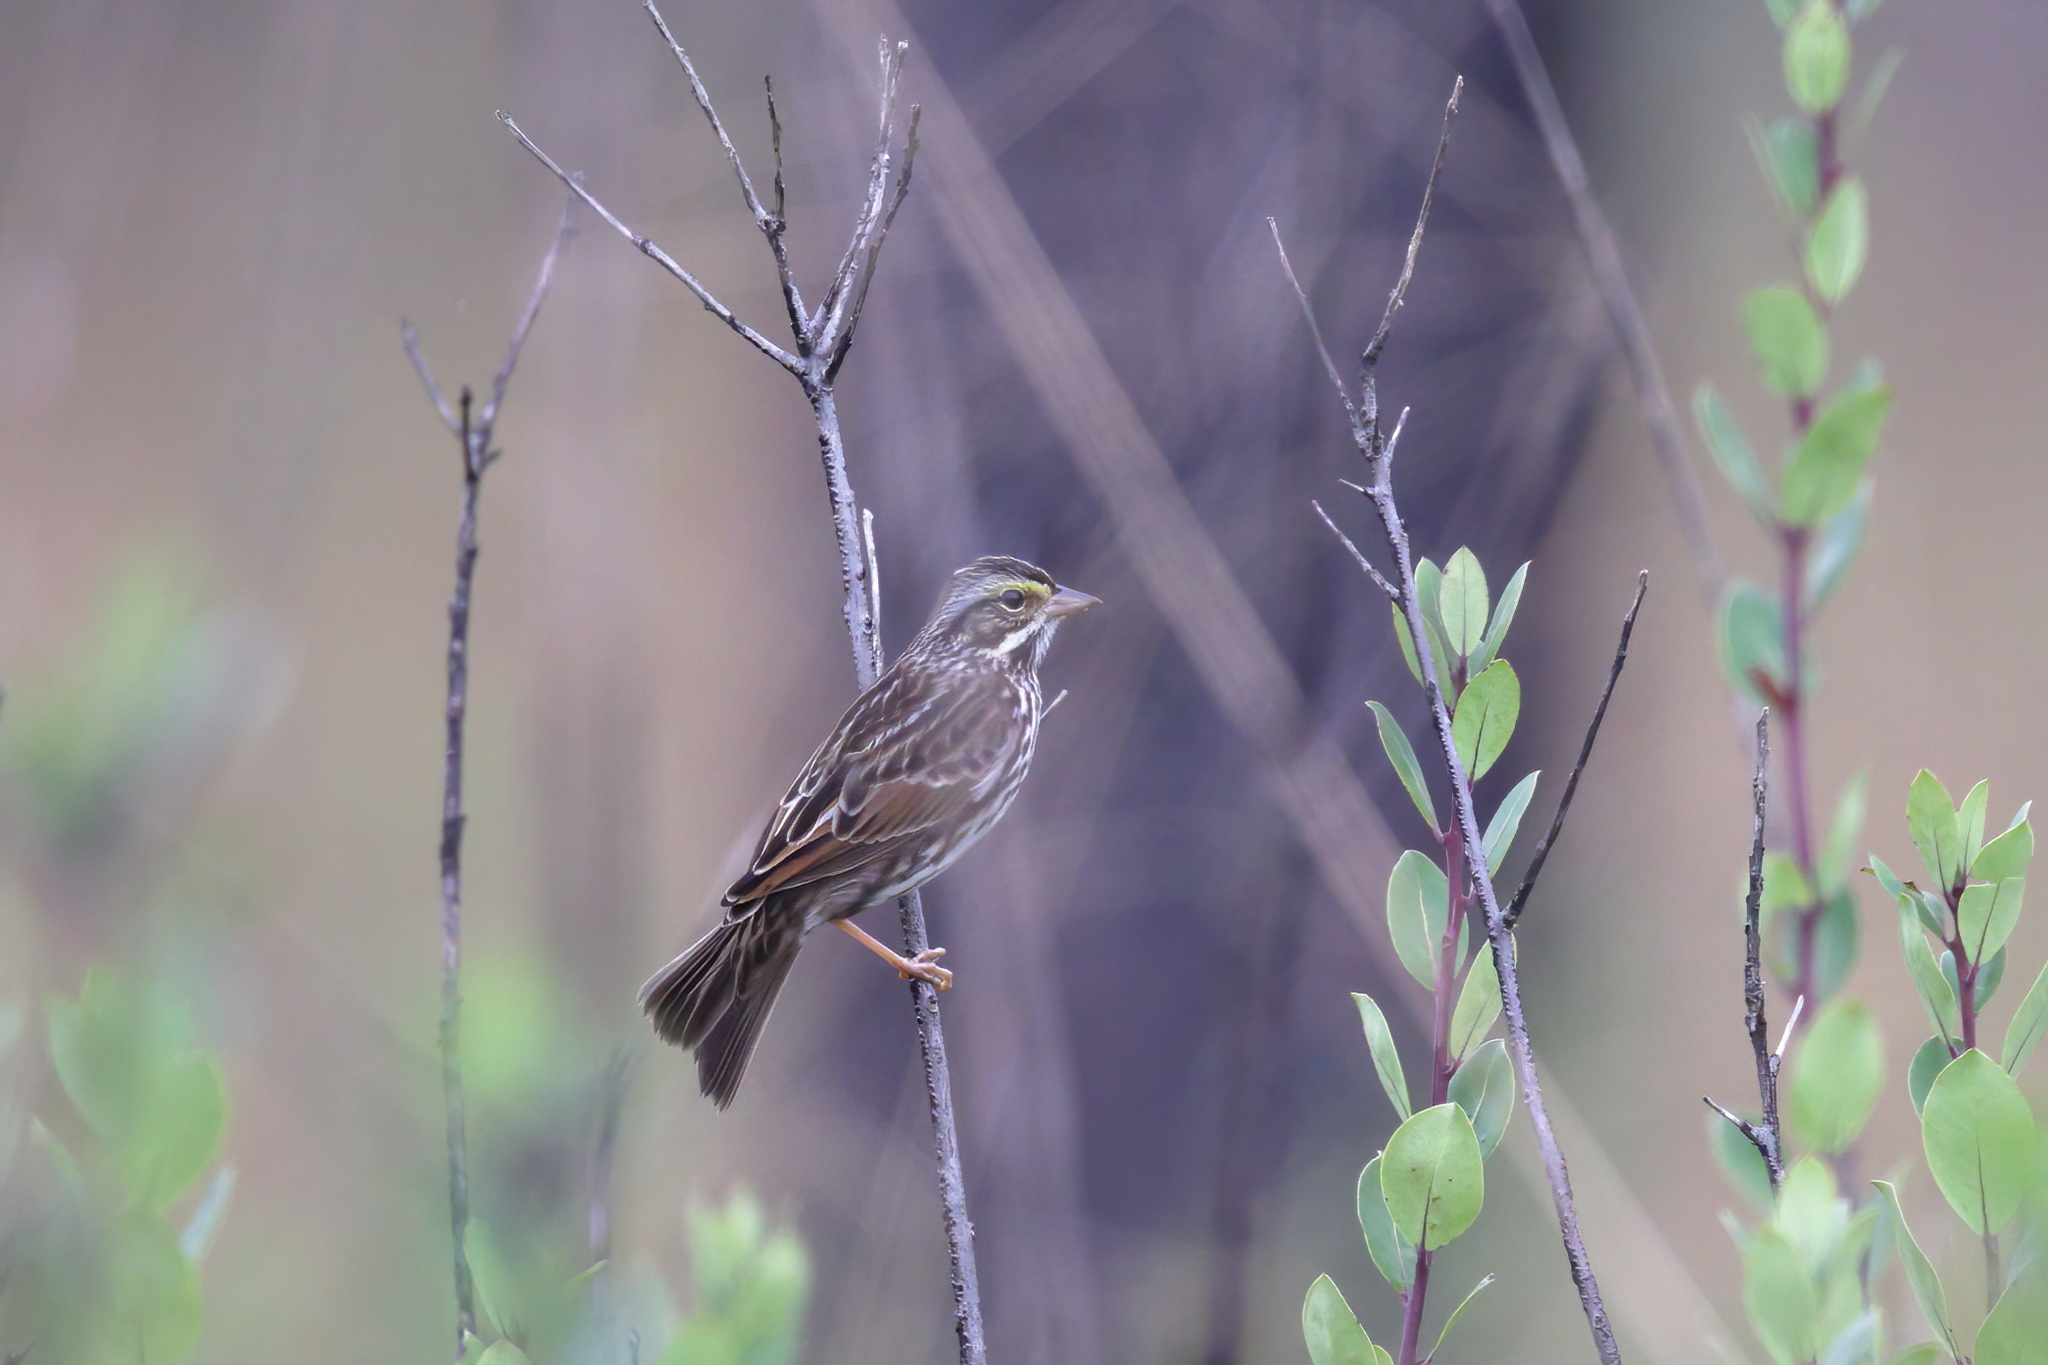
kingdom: Animalia
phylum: Chordata
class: Aves
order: Passeriformes
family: Passerellidae
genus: Passerculus
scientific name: Passerculus sandwichensis
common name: Savannah sparrow
